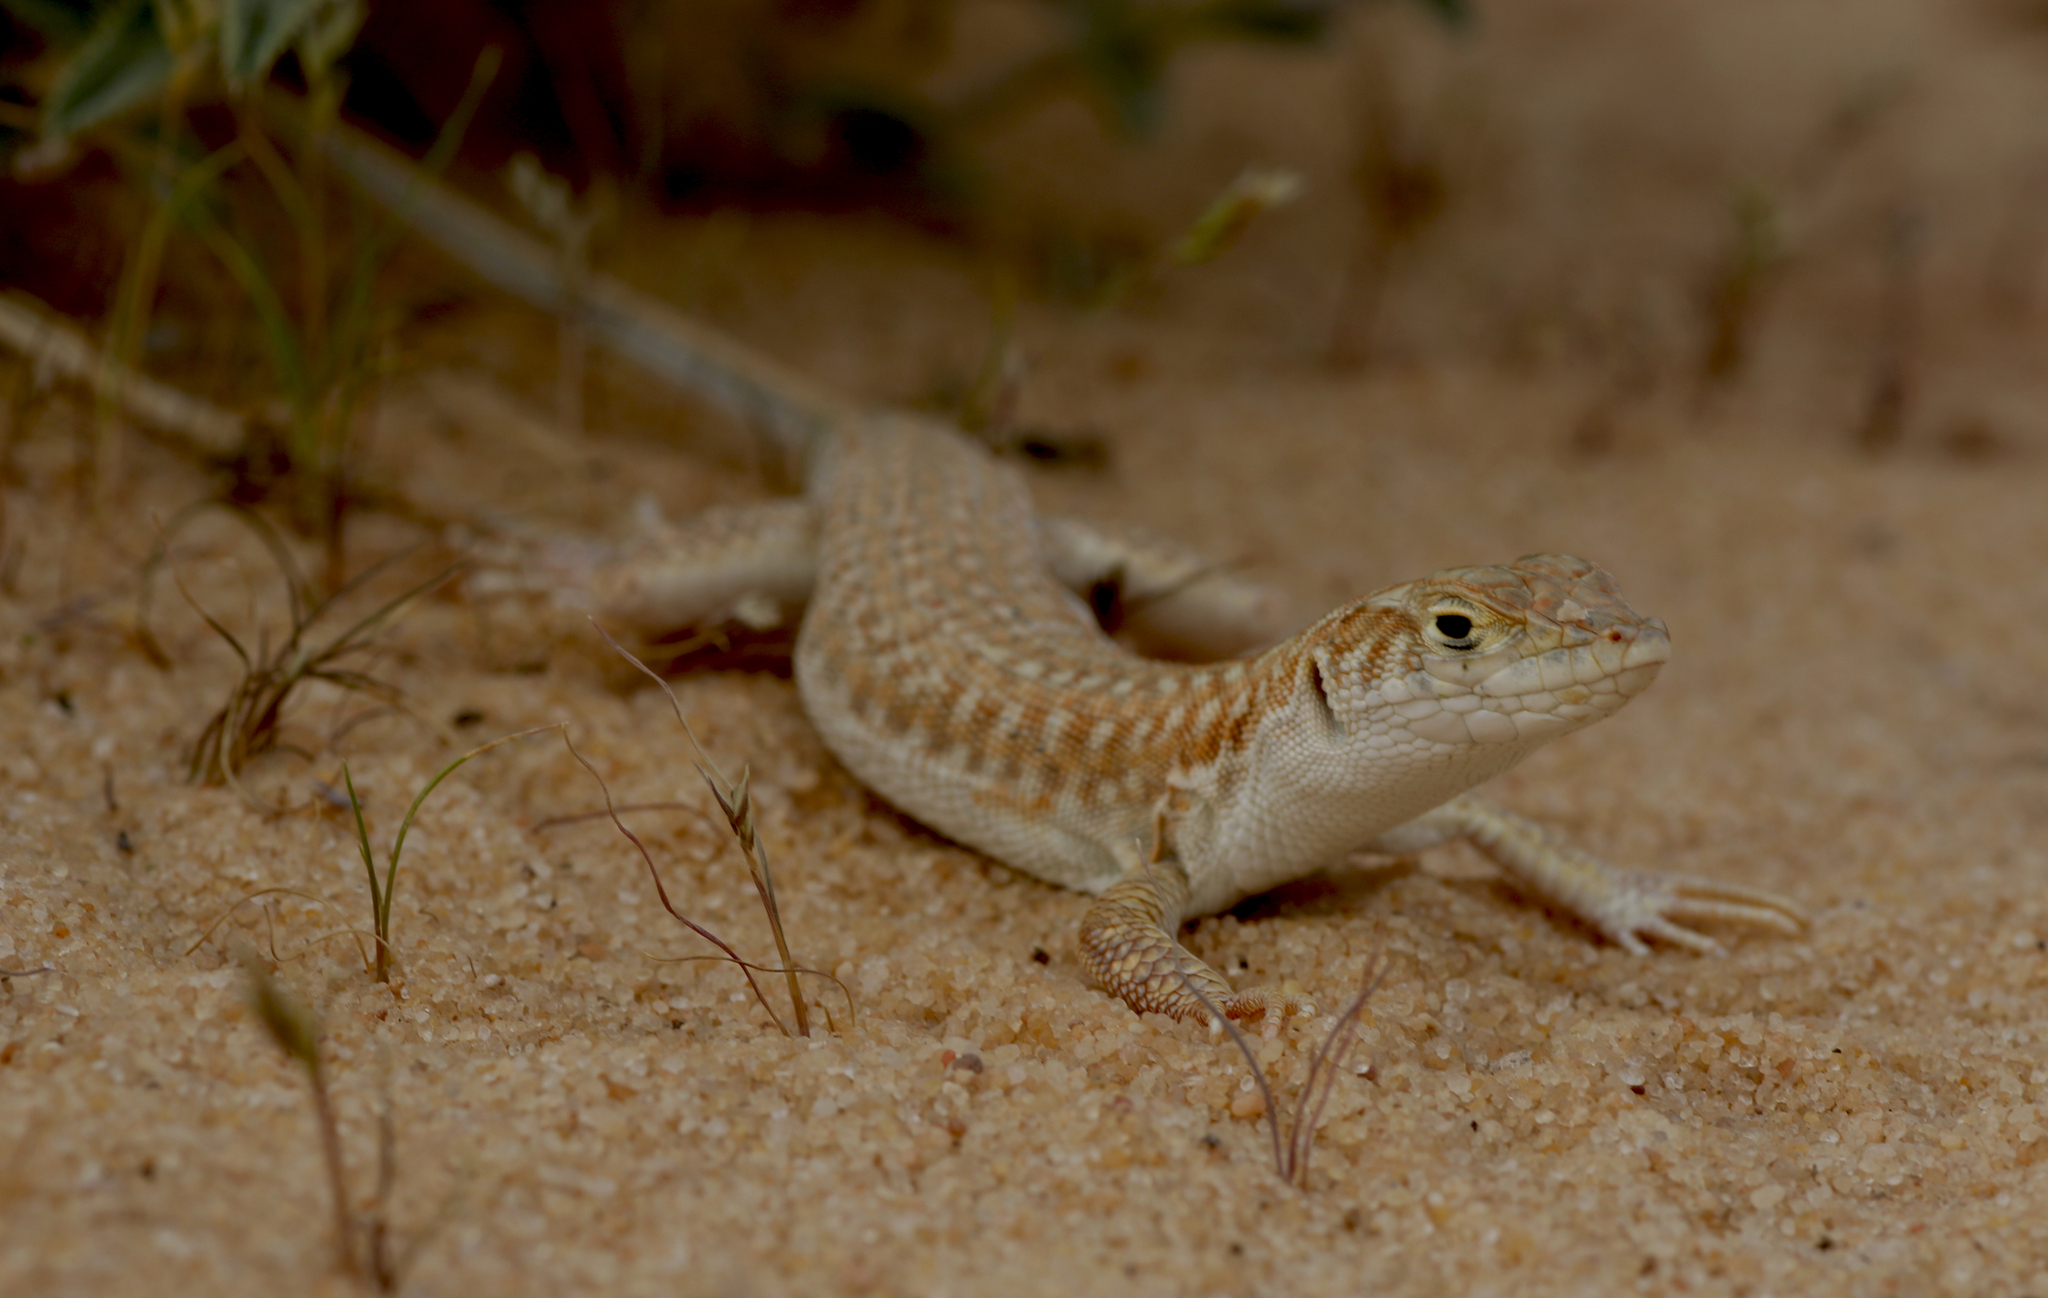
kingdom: Animalia
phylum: Chordata
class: Squamata
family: Lacertidae
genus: Acanthodactylus
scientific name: Acanthodactylus schmidti
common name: Schmidt's fringe-toed lizard
